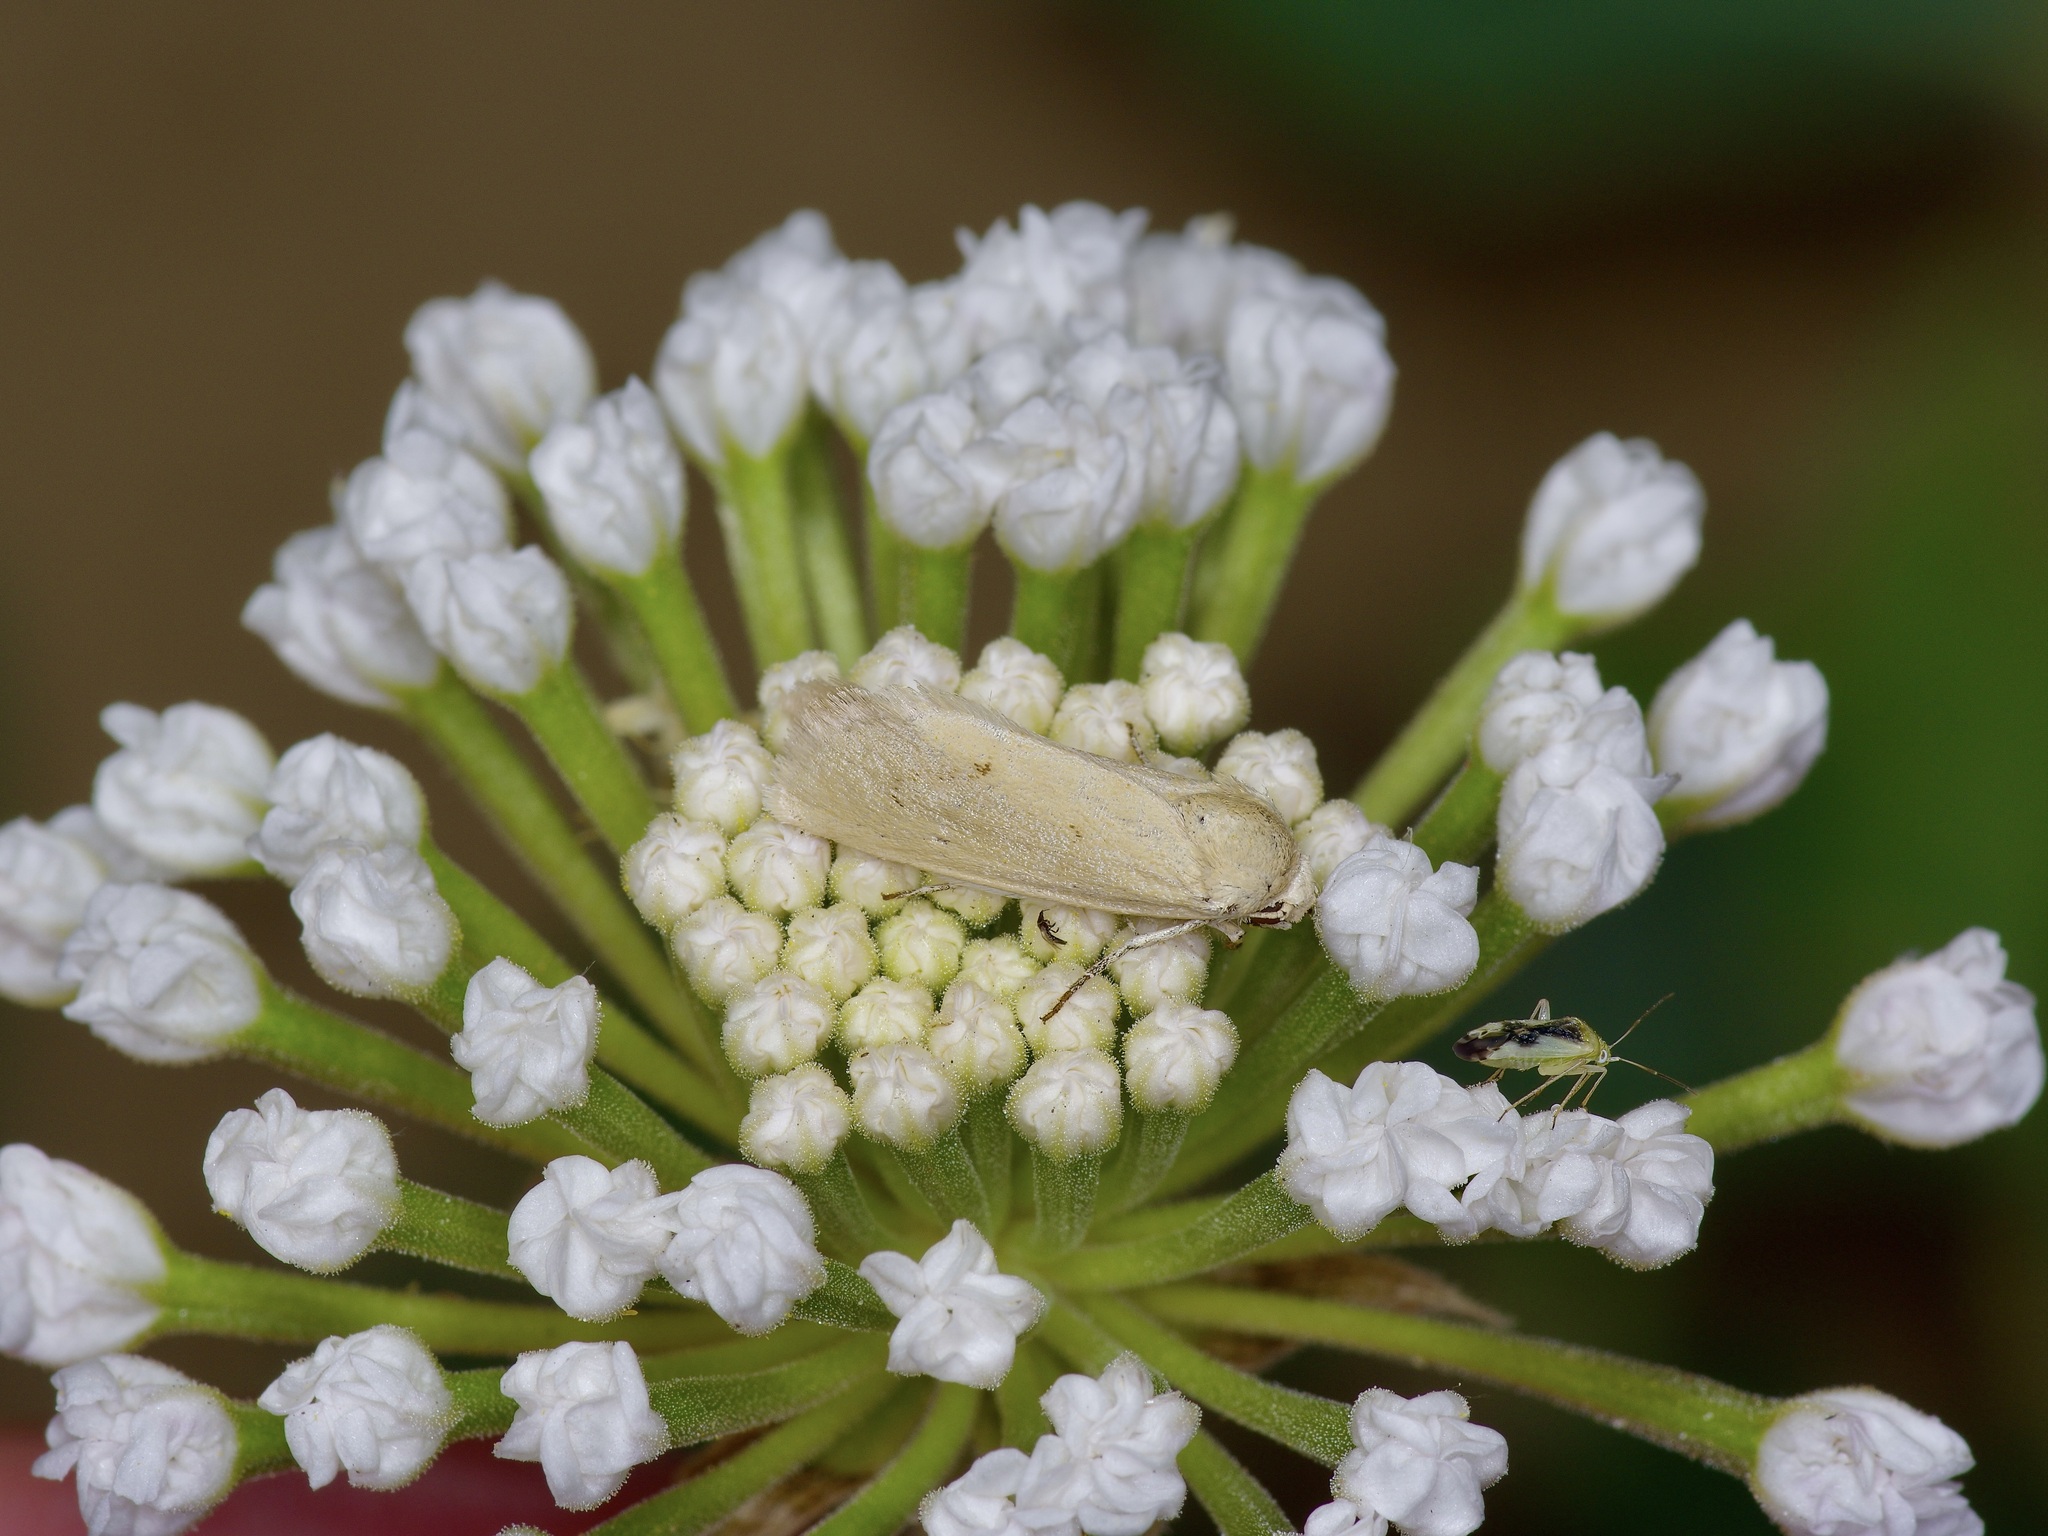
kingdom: Animalia
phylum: Arthropoda
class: Insecta
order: Lepidoptera
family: Noctuidae
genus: Neogrotella
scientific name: Neogrotella confusa
